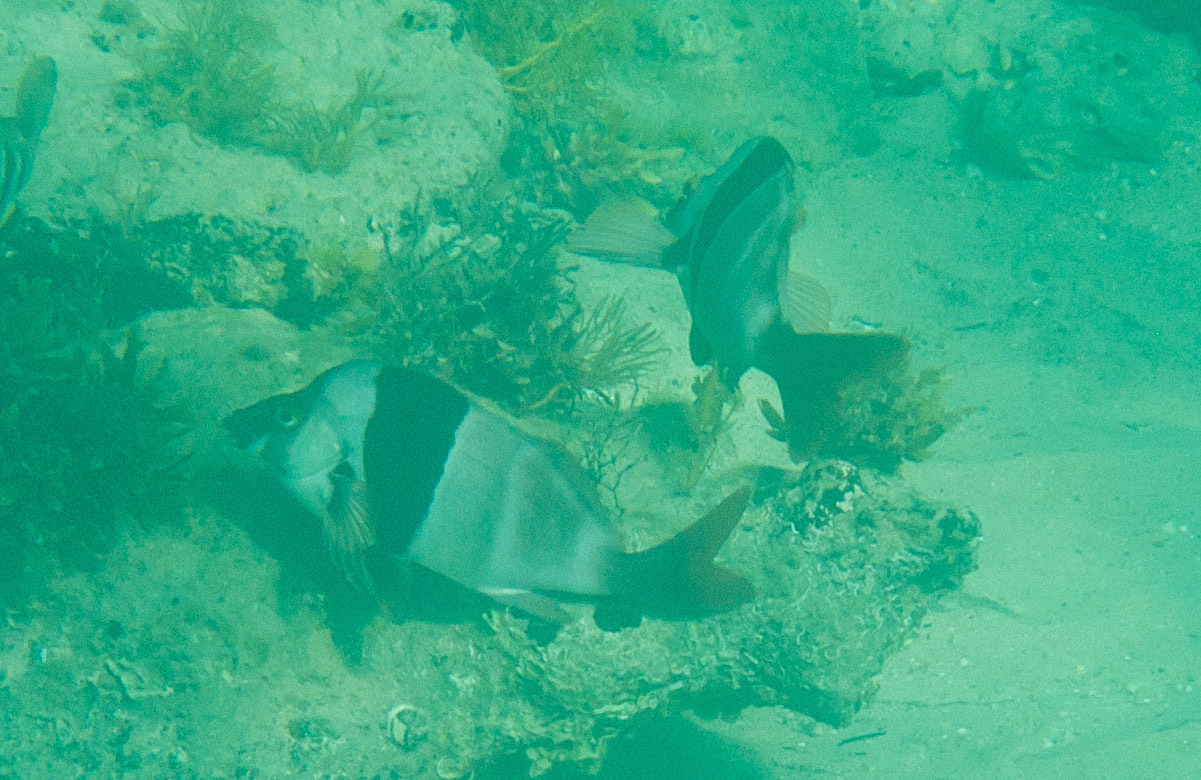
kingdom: Animalia
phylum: Chordata
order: Perciformes
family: Latridae
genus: Pseudogoniistius
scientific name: Pseudogoniistius nigripes
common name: Black-striped morwong
